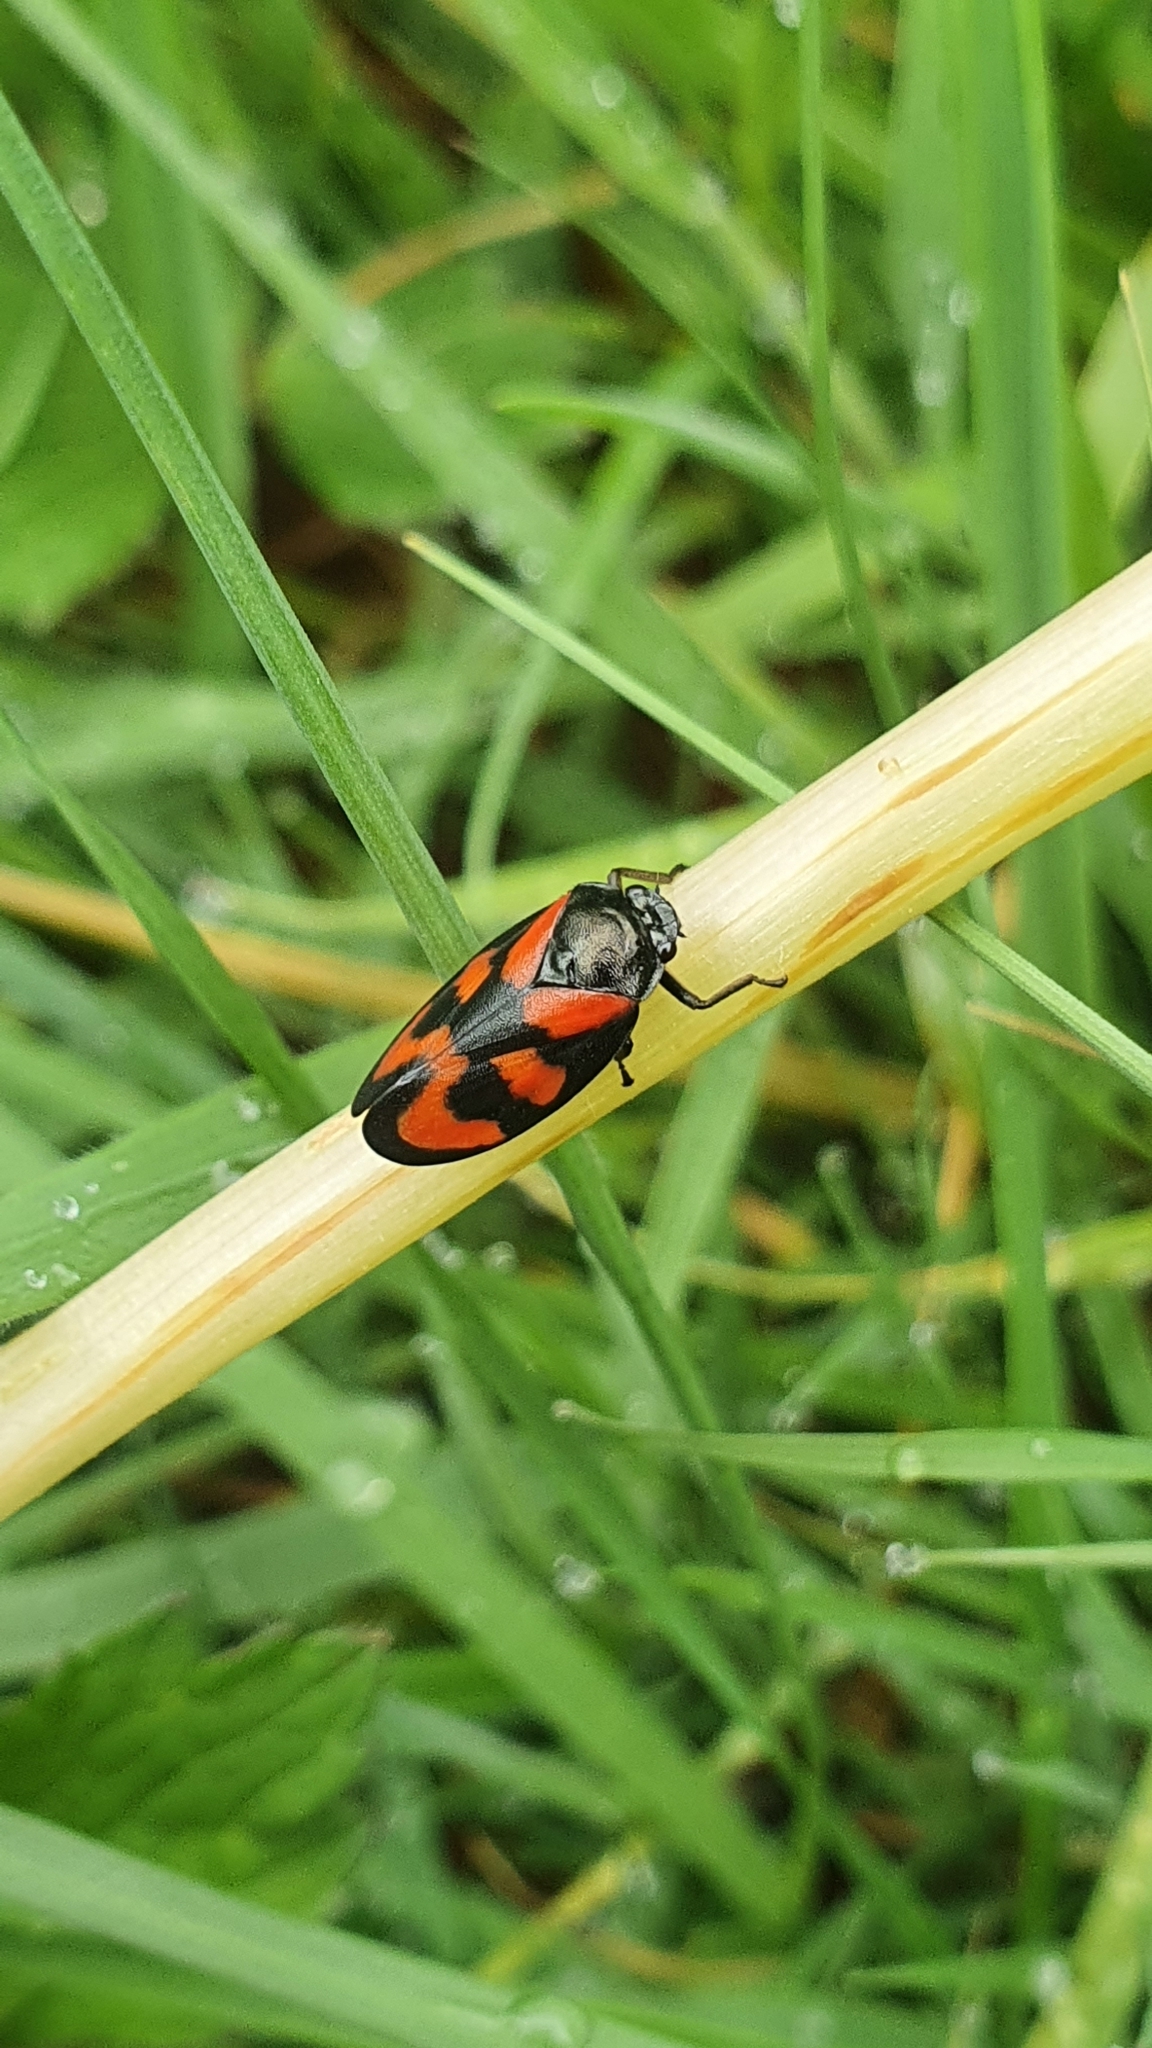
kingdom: Animalia
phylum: Arthropoda
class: Insecta
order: Hemiptera
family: Cercopidae
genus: Cercopis
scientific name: Cercopis vulnerata
